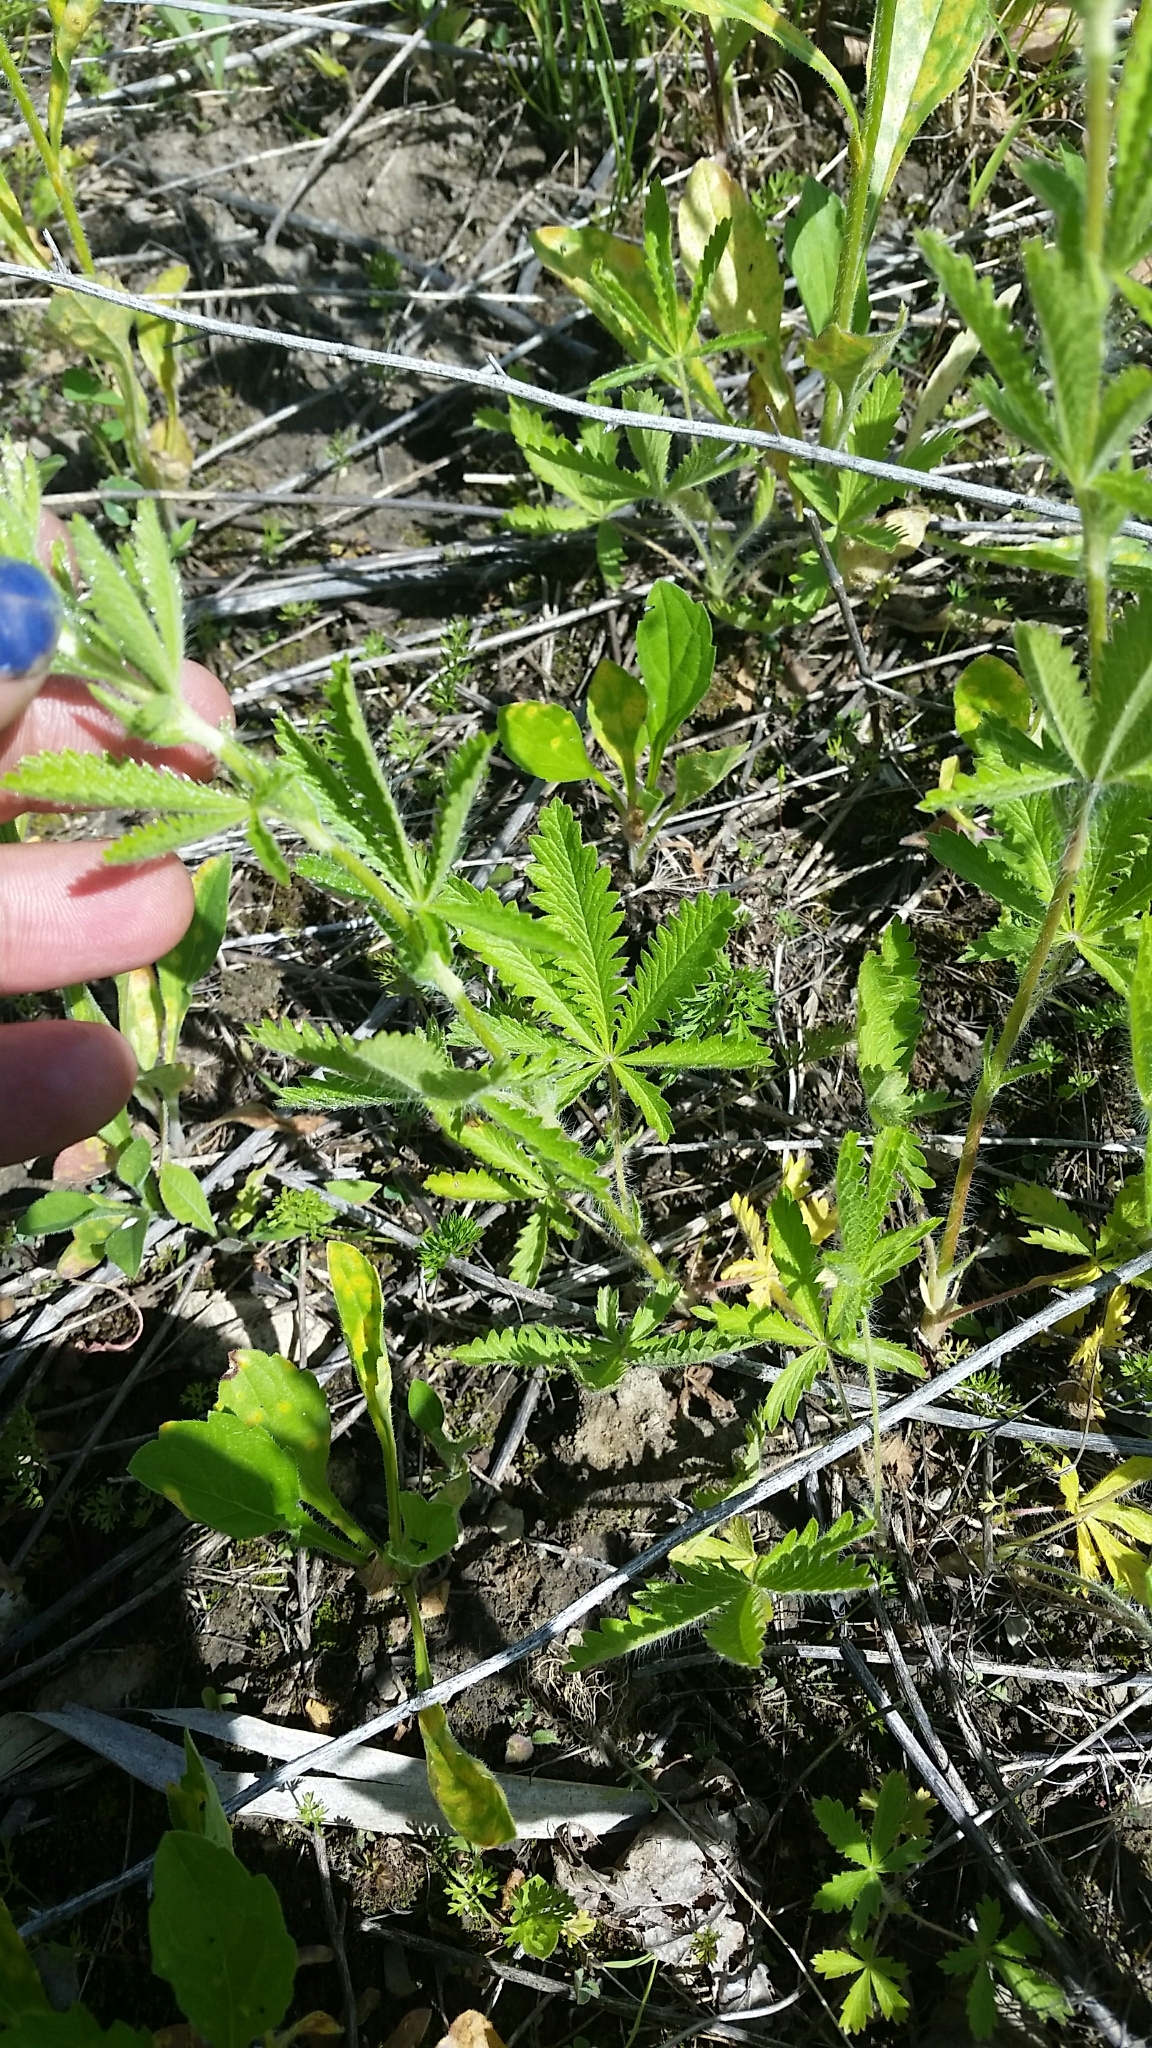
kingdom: Plantae
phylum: Tracheophyta
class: Magnoliopsida
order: Rosales
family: Rosaceae
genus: Potentilla
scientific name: Potentilla recta
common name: Sulphur cinquefoil
